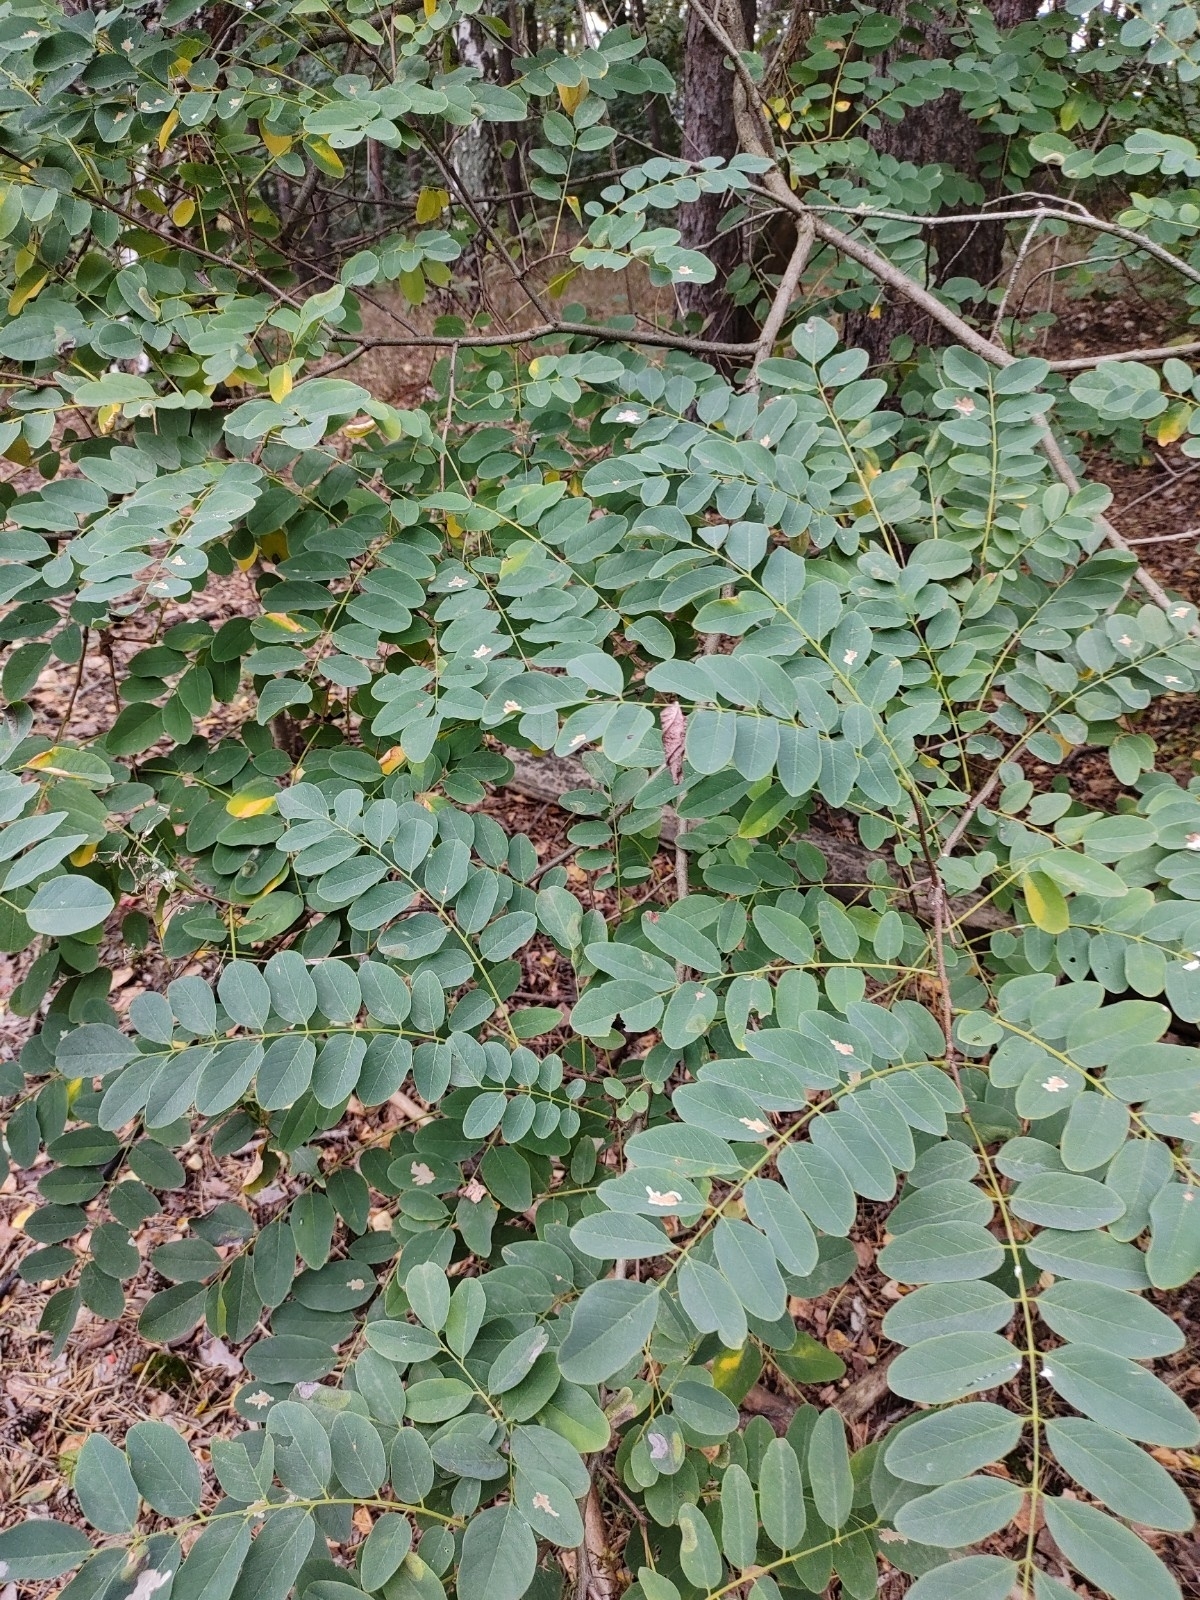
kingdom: Plantae
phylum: Tracheophyta
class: Magnoliopsida
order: Fabales
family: Fabaceae
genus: Robinia
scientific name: Robinia pseudoacacia
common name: Black locust
